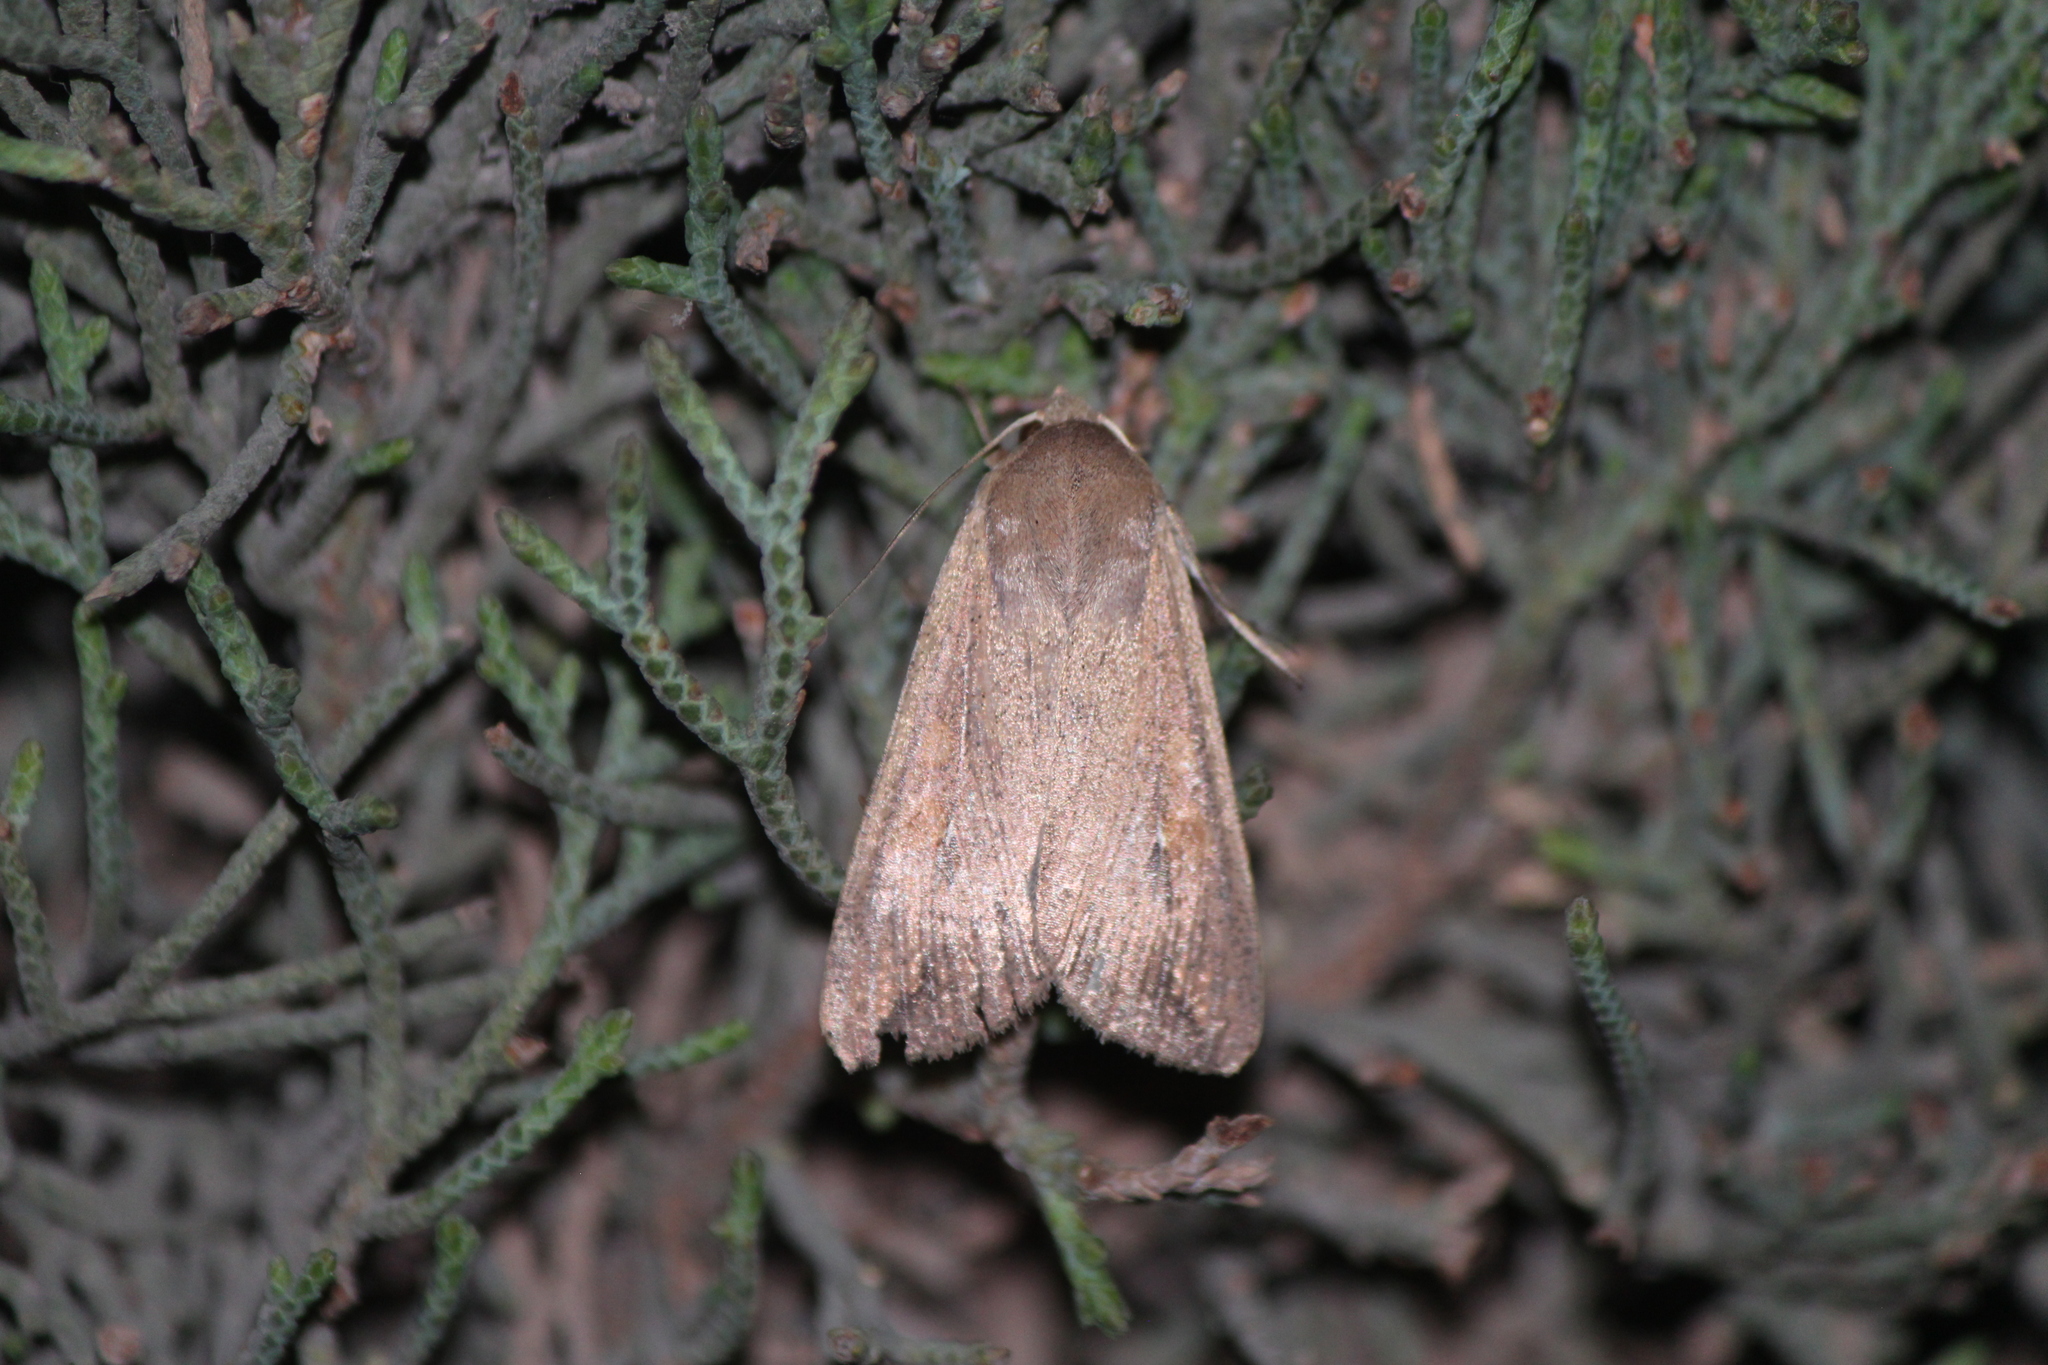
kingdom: Animalia
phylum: Arthropoda
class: Insecta
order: Lepidoptera
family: Noctuidae
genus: Mythimna
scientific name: Mythimna unipuncta
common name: White-speck
